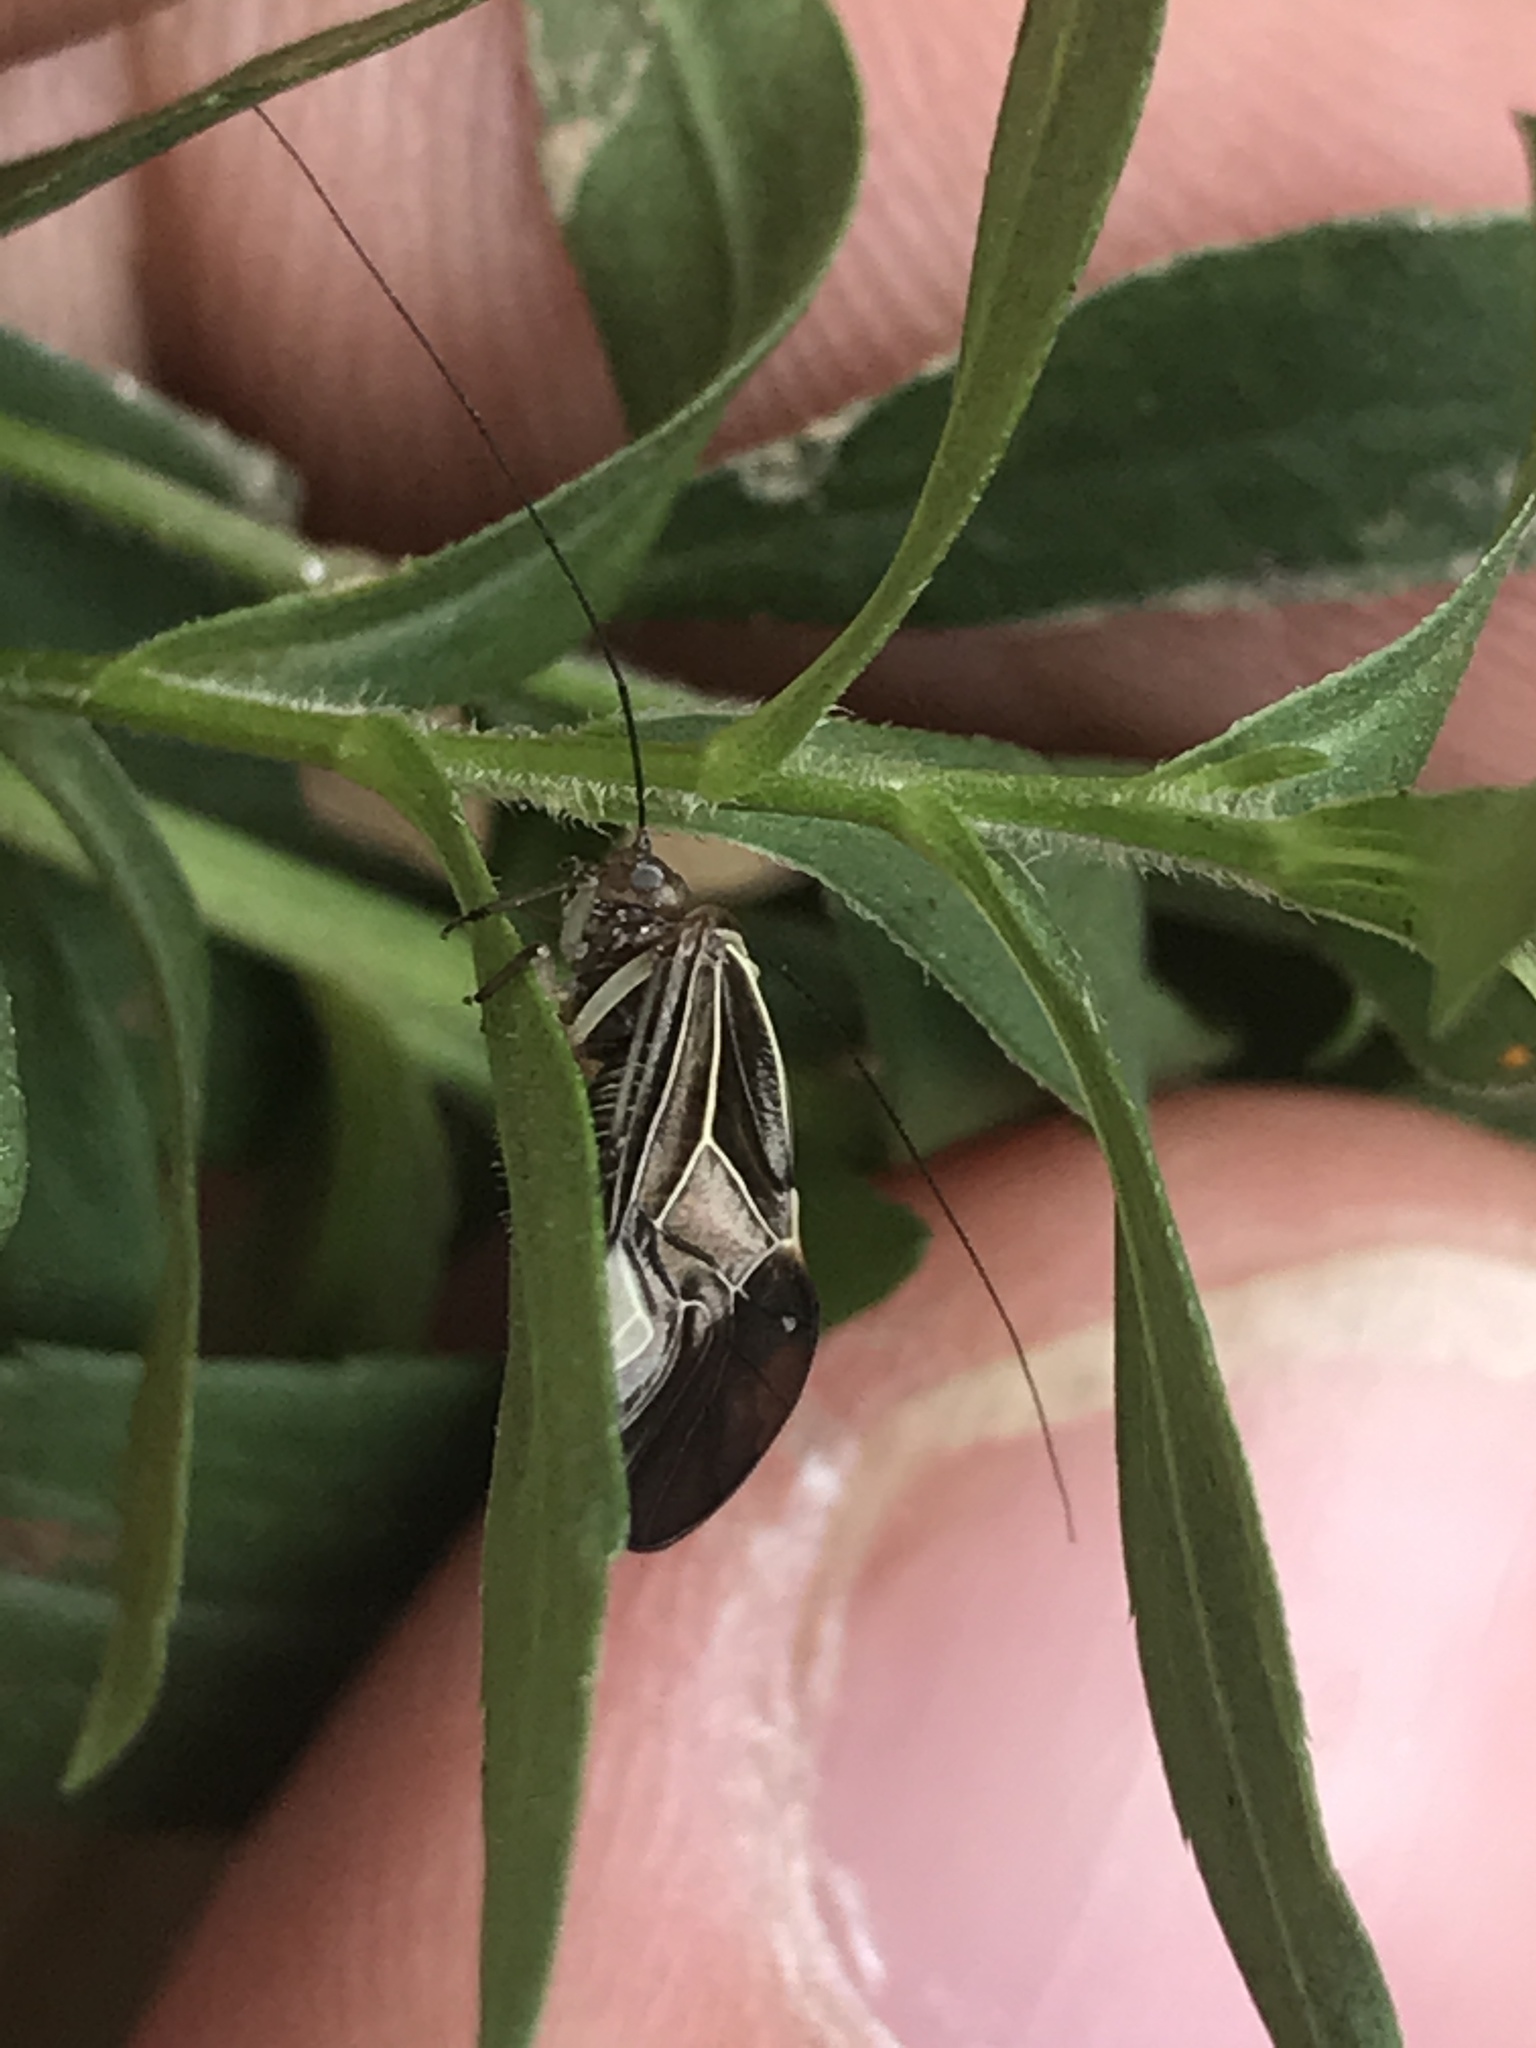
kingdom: Animalia
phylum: Arthropoda
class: Insecta
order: Psocodea
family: Psocidae
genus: Cerastipsocus
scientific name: Cerastipsocus venosus
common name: Tree cattle
